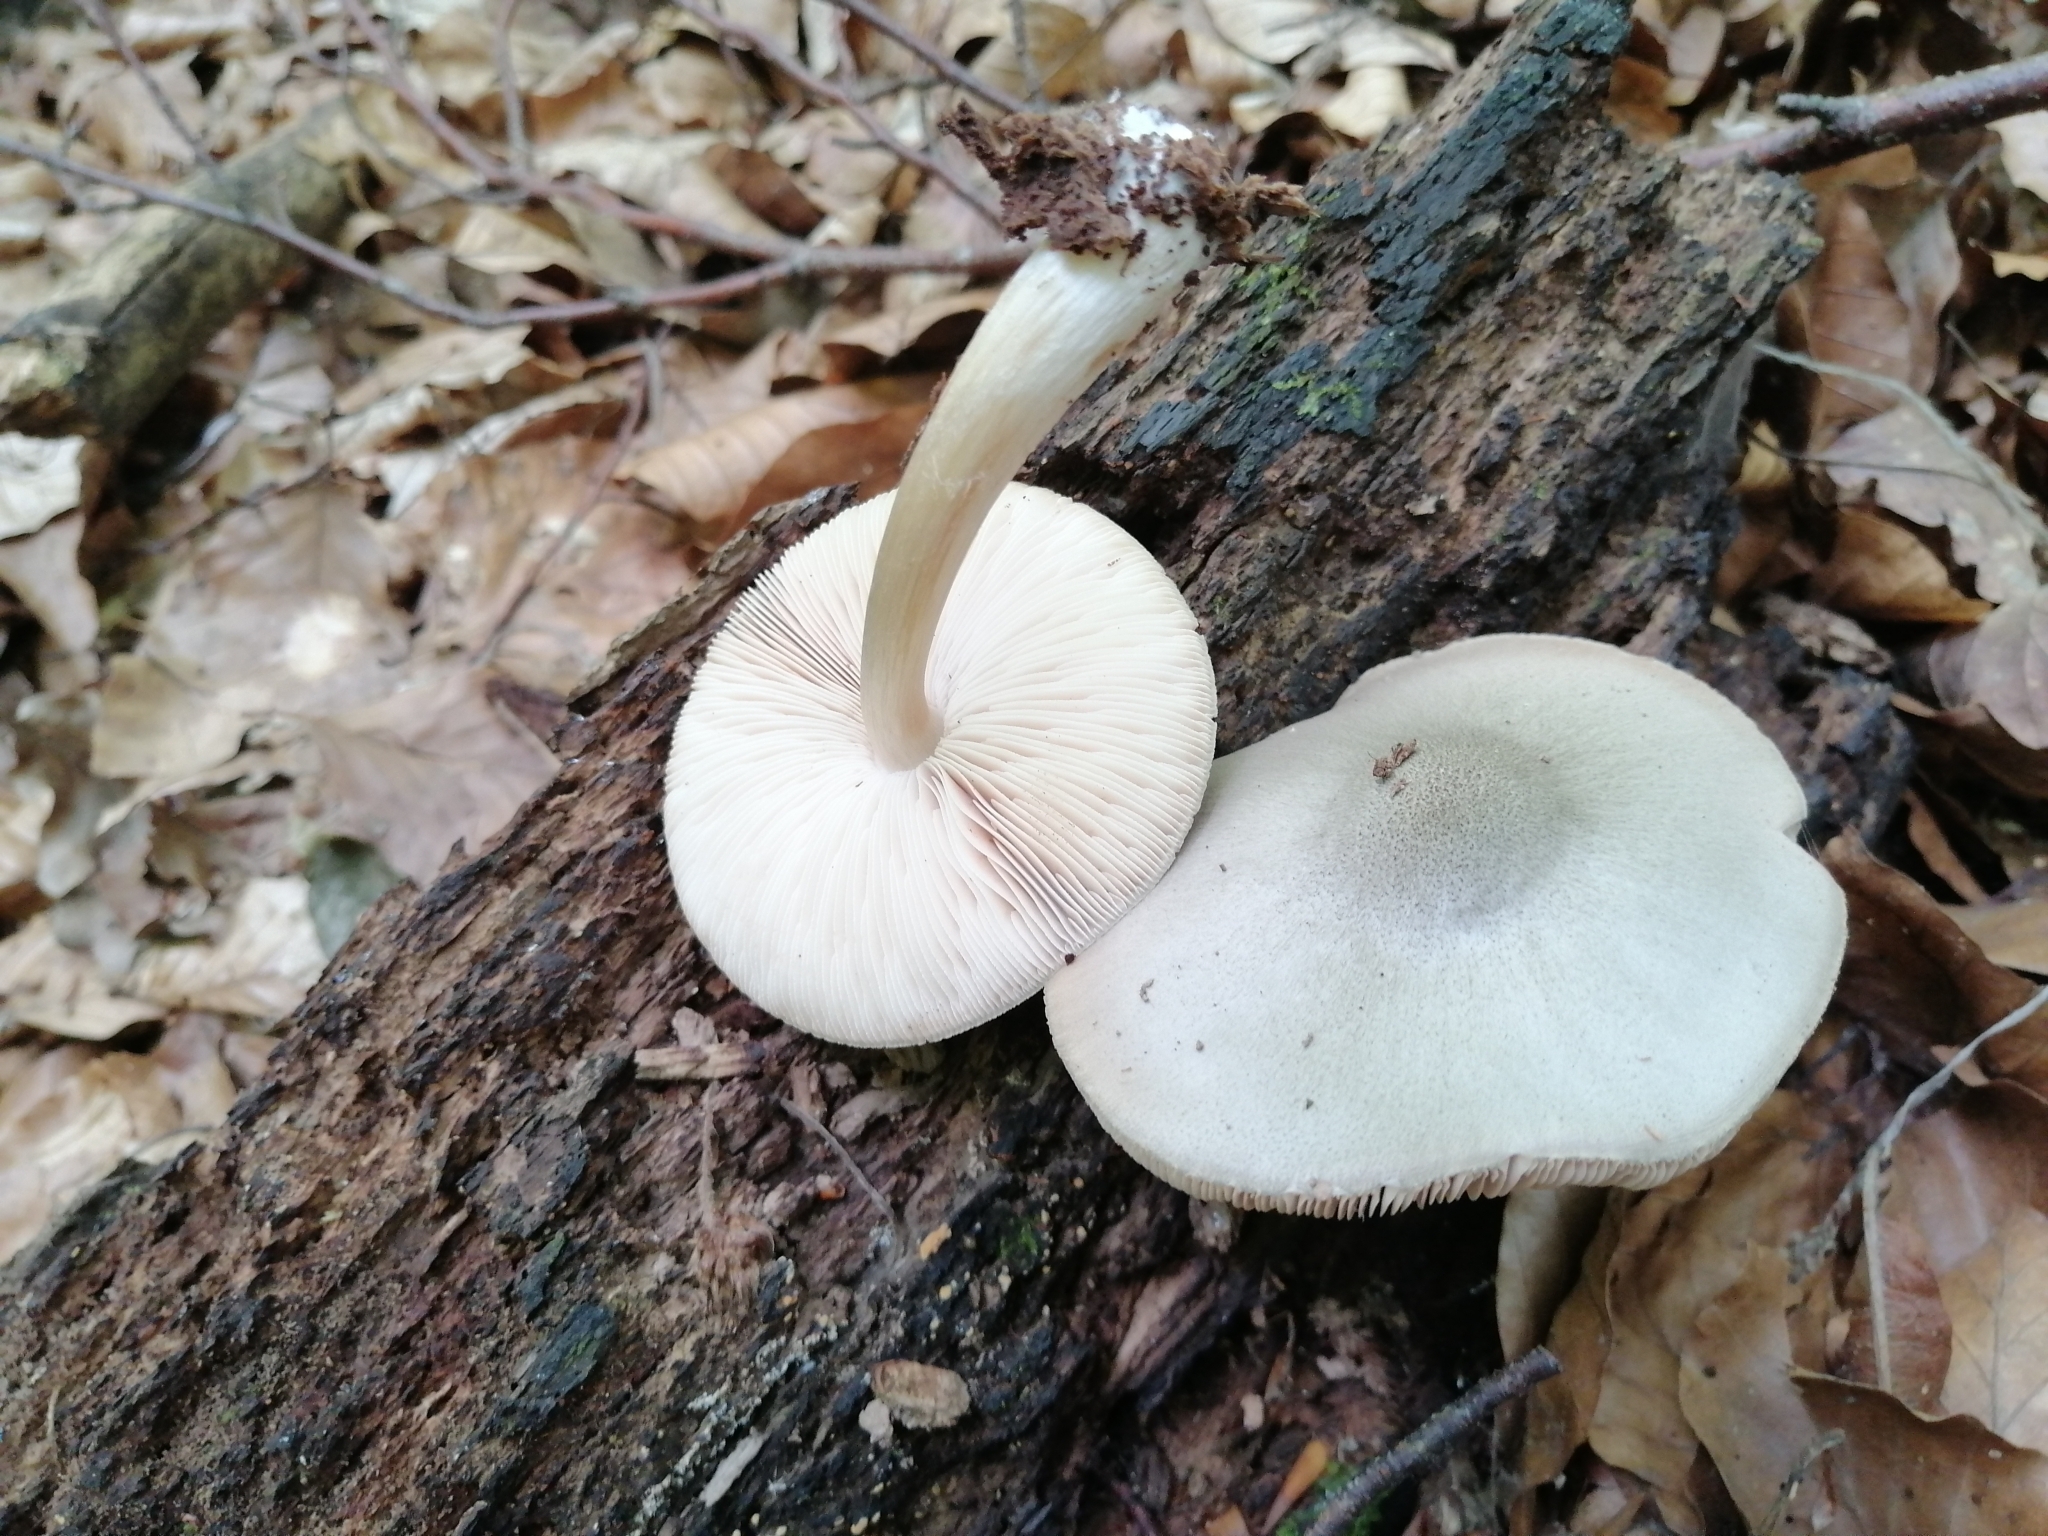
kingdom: Fungi
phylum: Basidiomycota
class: Agaricomycetes
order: Agaricales
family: Pluteaceae
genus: Pluteus
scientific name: Pluteus salicinus
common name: Willow shield
